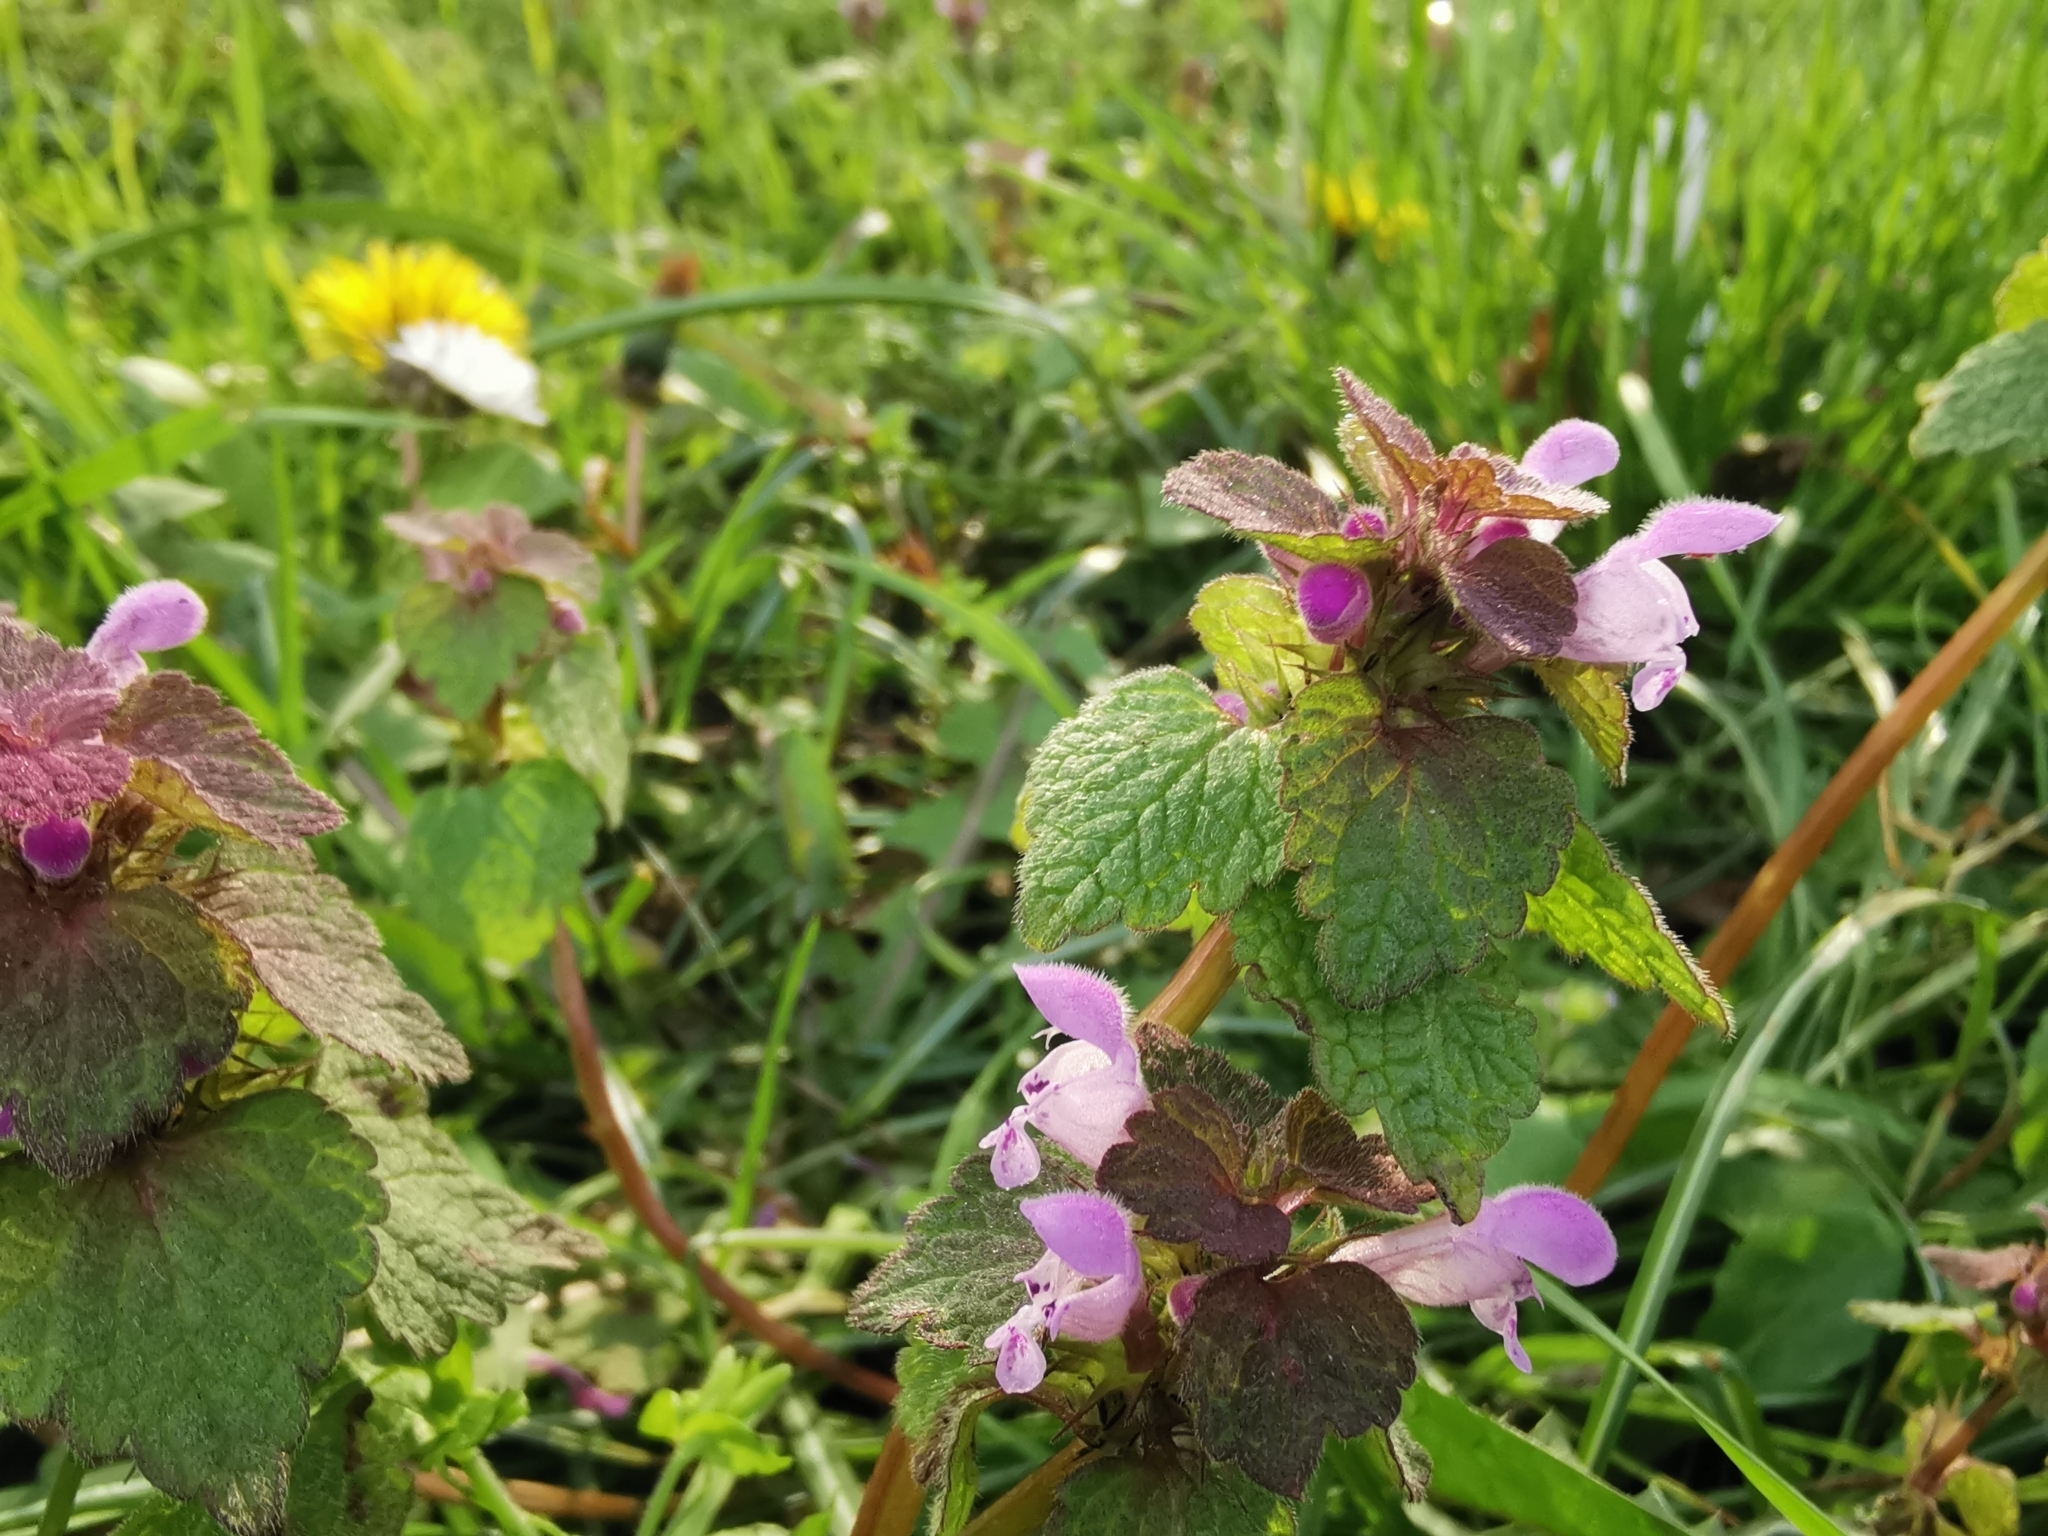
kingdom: Plantae
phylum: Tracheophyta
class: Magnoliopsida
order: Lamiales
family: Lamiaceae
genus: Lamium
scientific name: Lamium purpureum
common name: Red dead-nettle
